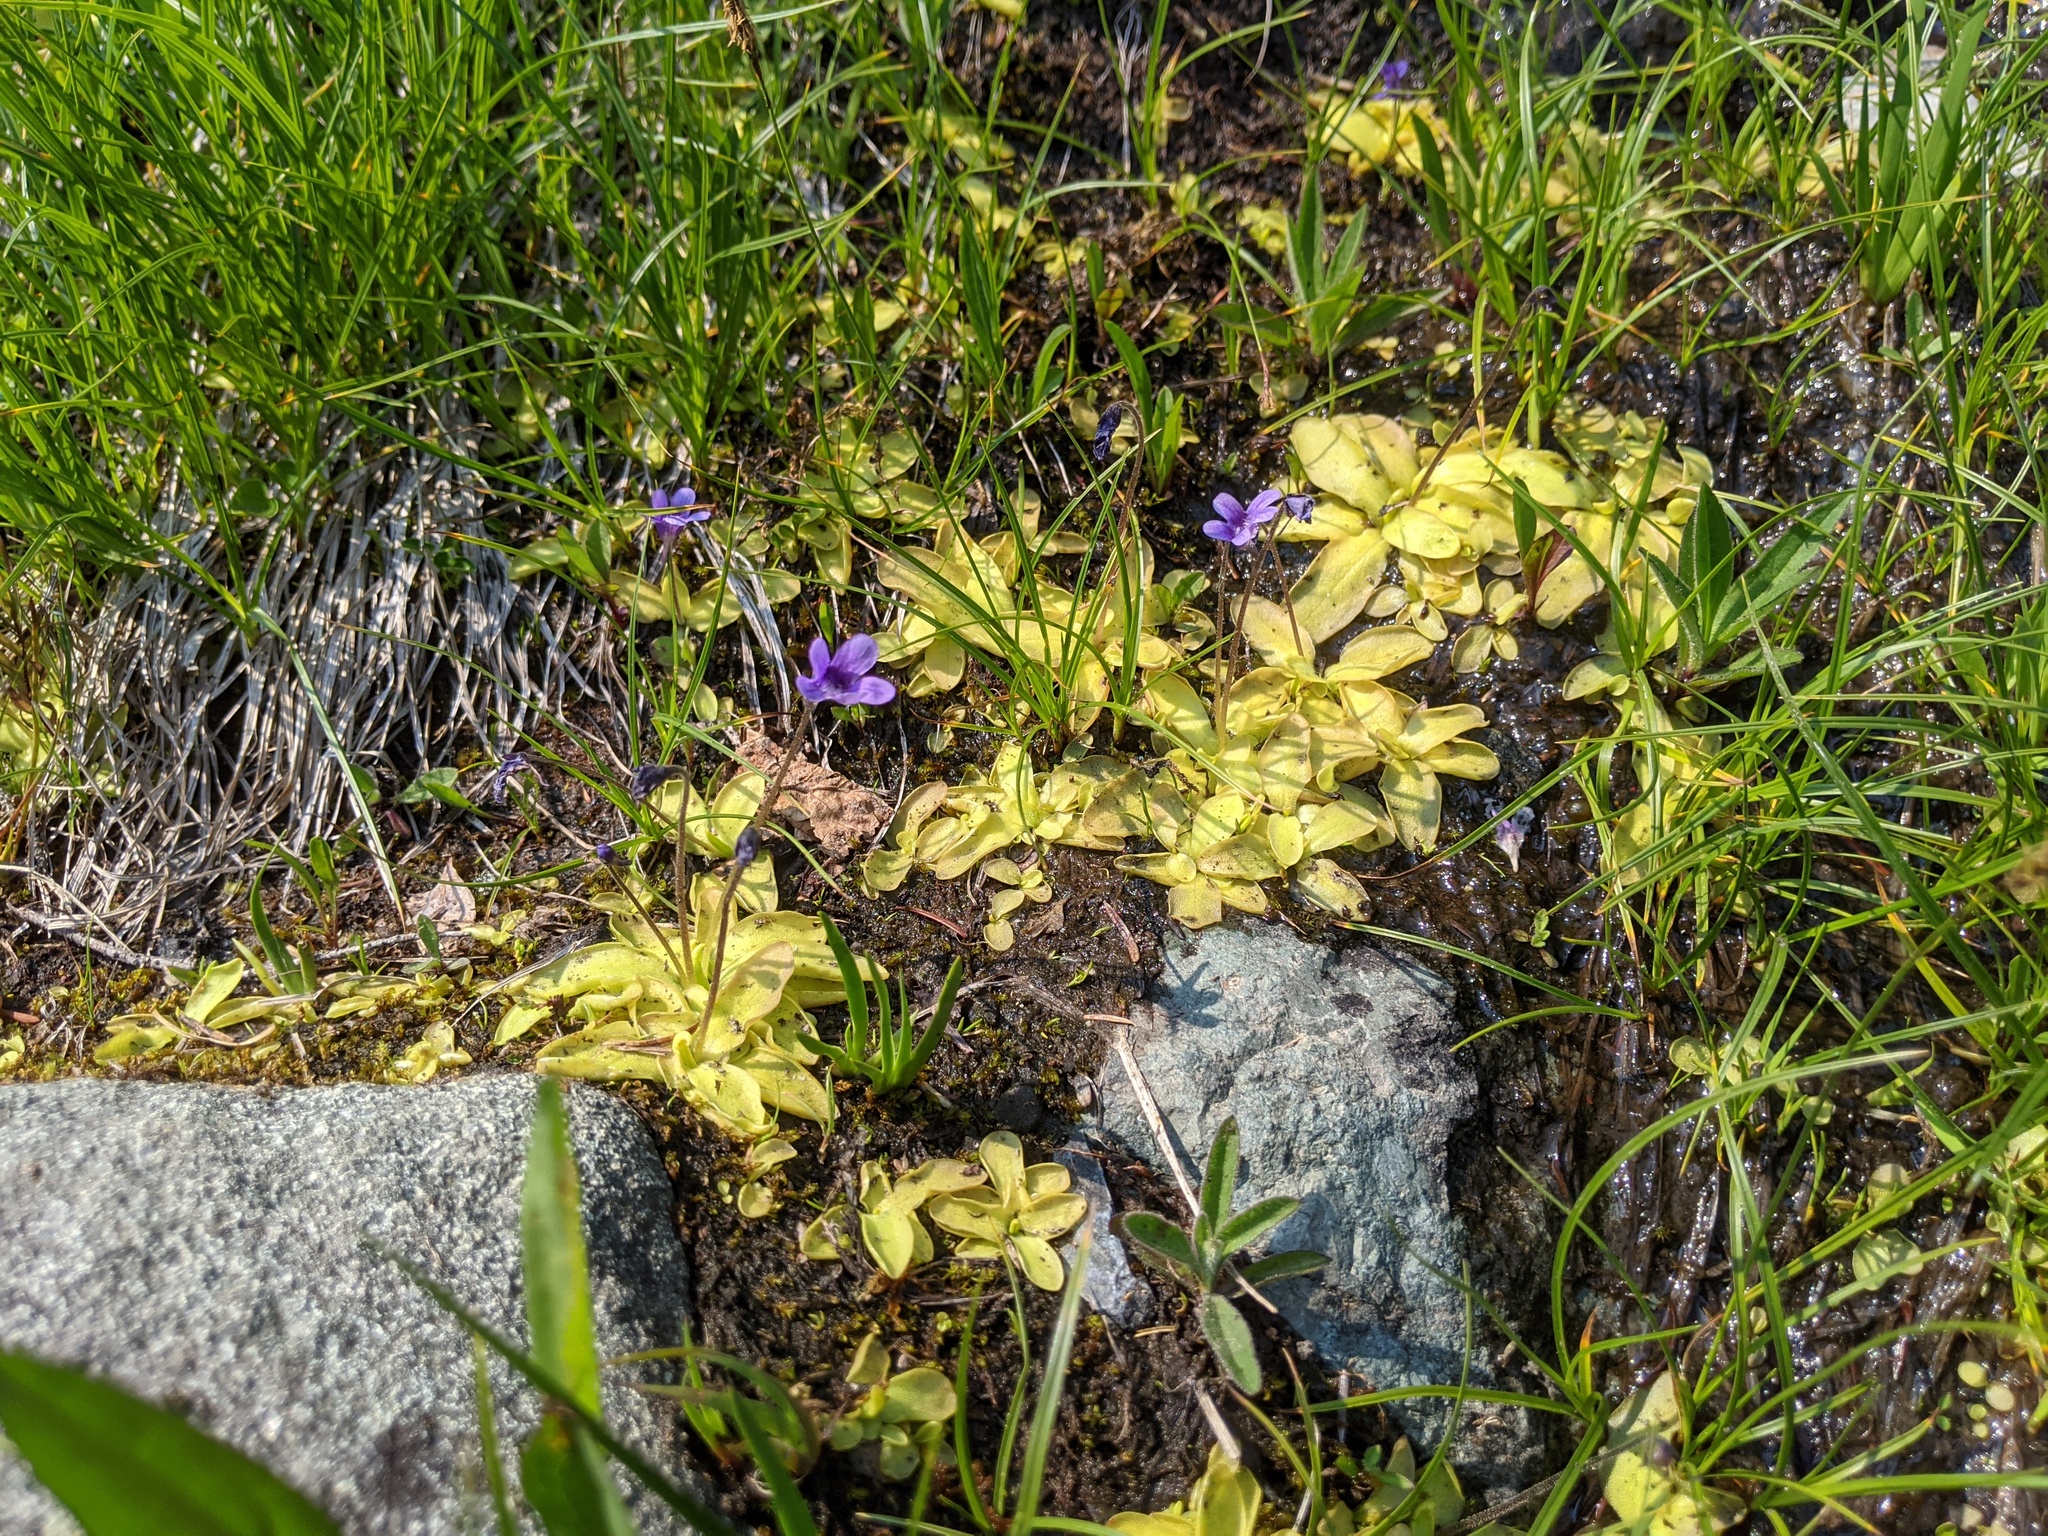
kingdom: Plantae
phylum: Tracheophyta
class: Magnoliopsida
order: Lamiales
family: Lentibulariaceae
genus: Pinguicula
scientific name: Pinguicula vulgaris
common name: Common butterwort
